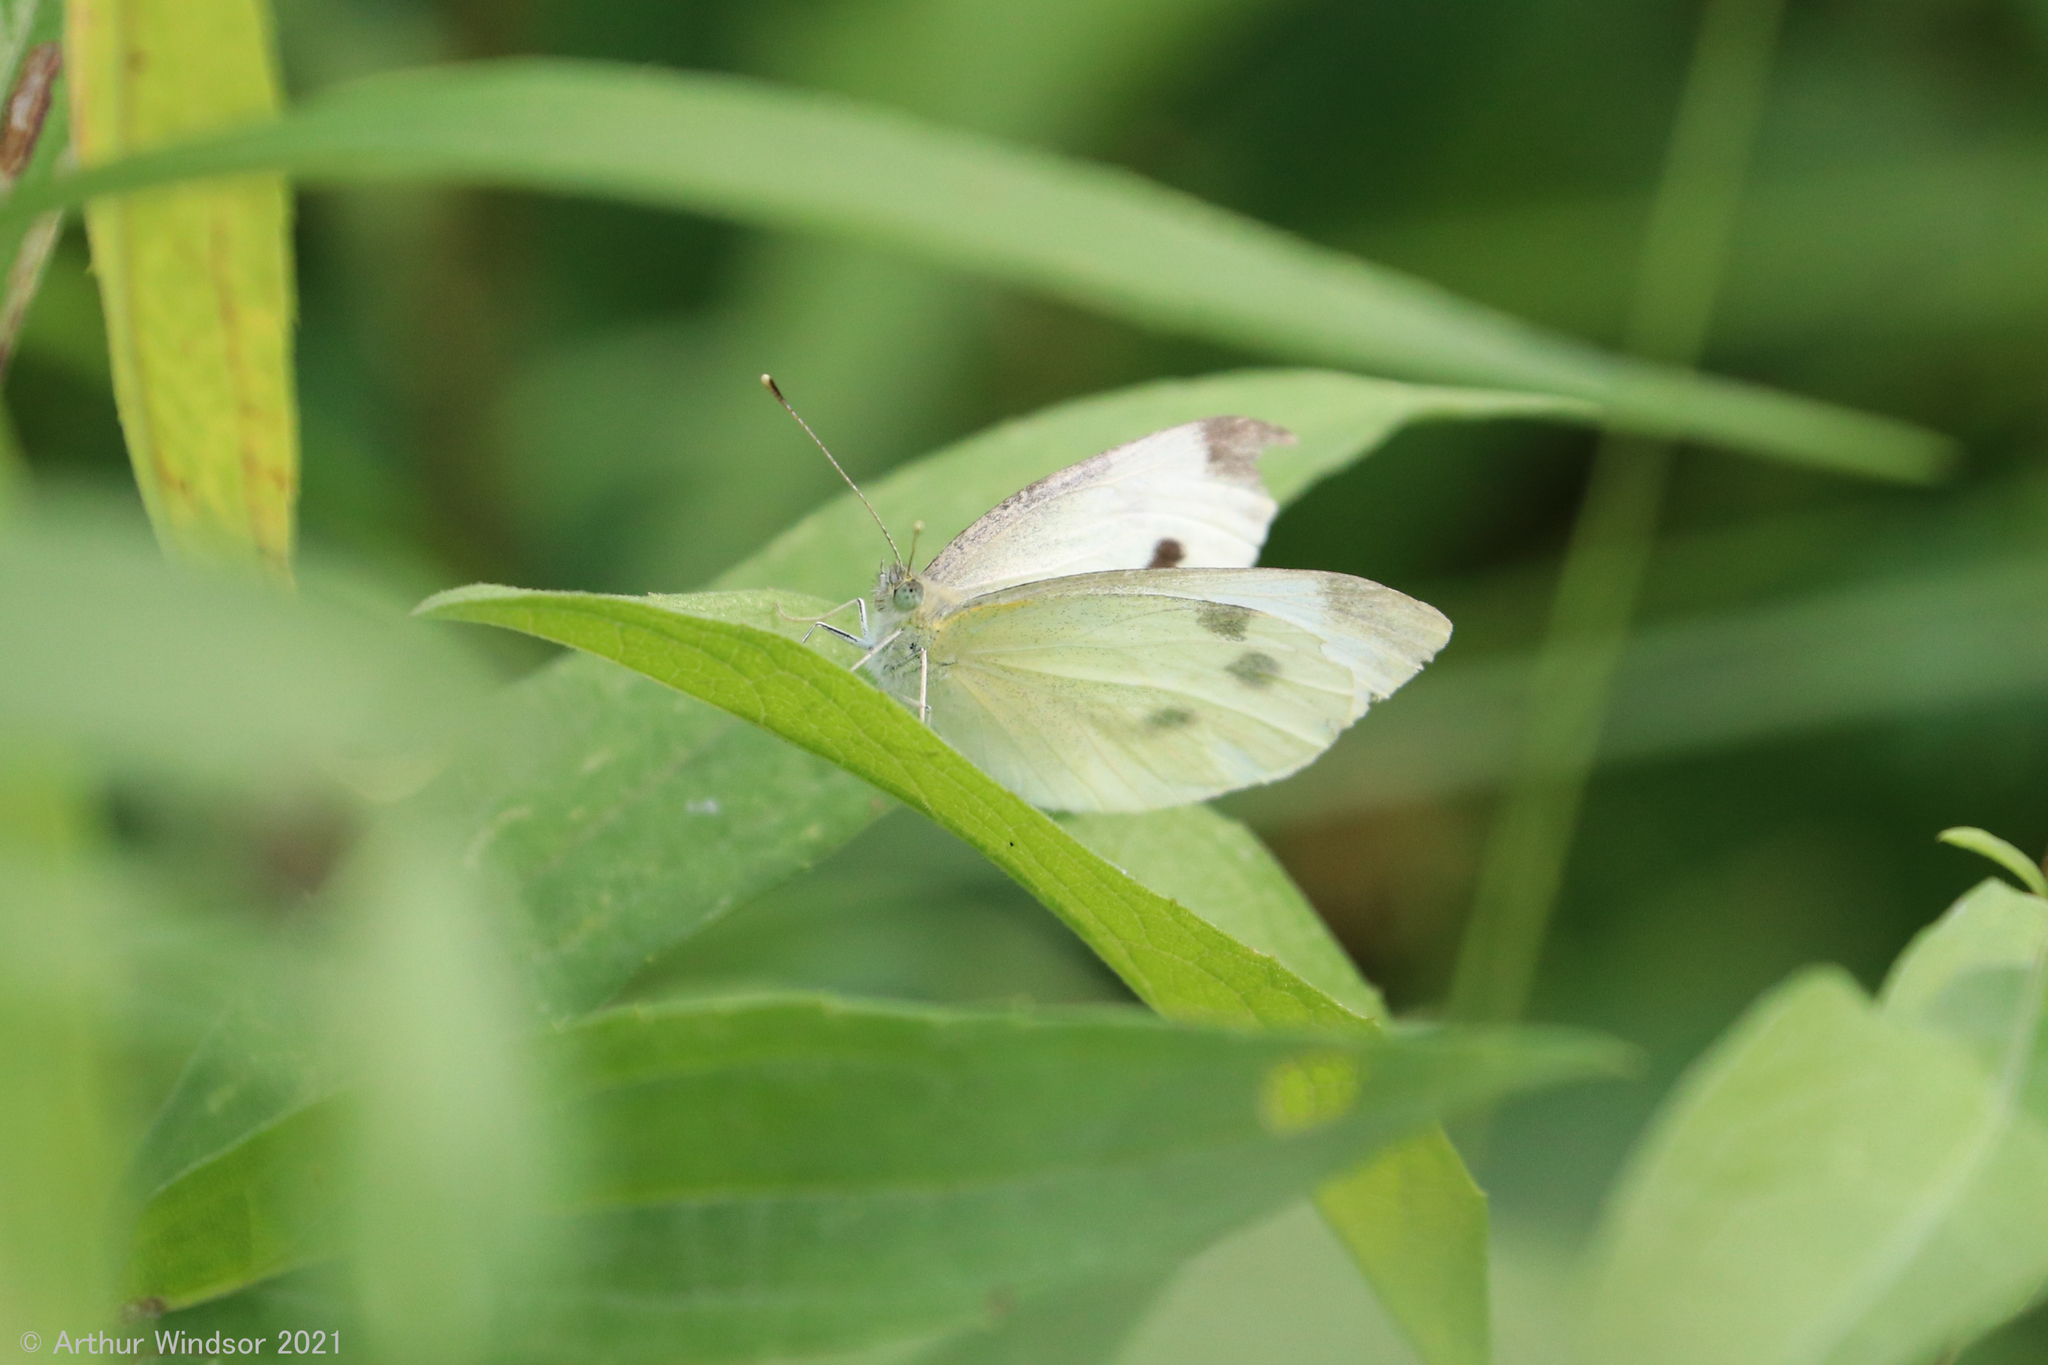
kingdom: Animalia
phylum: Arthropoda
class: Insecta
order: Lepidoptera
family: Pieridae
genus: Pieris
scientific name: Pieris rapae
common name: Small white
